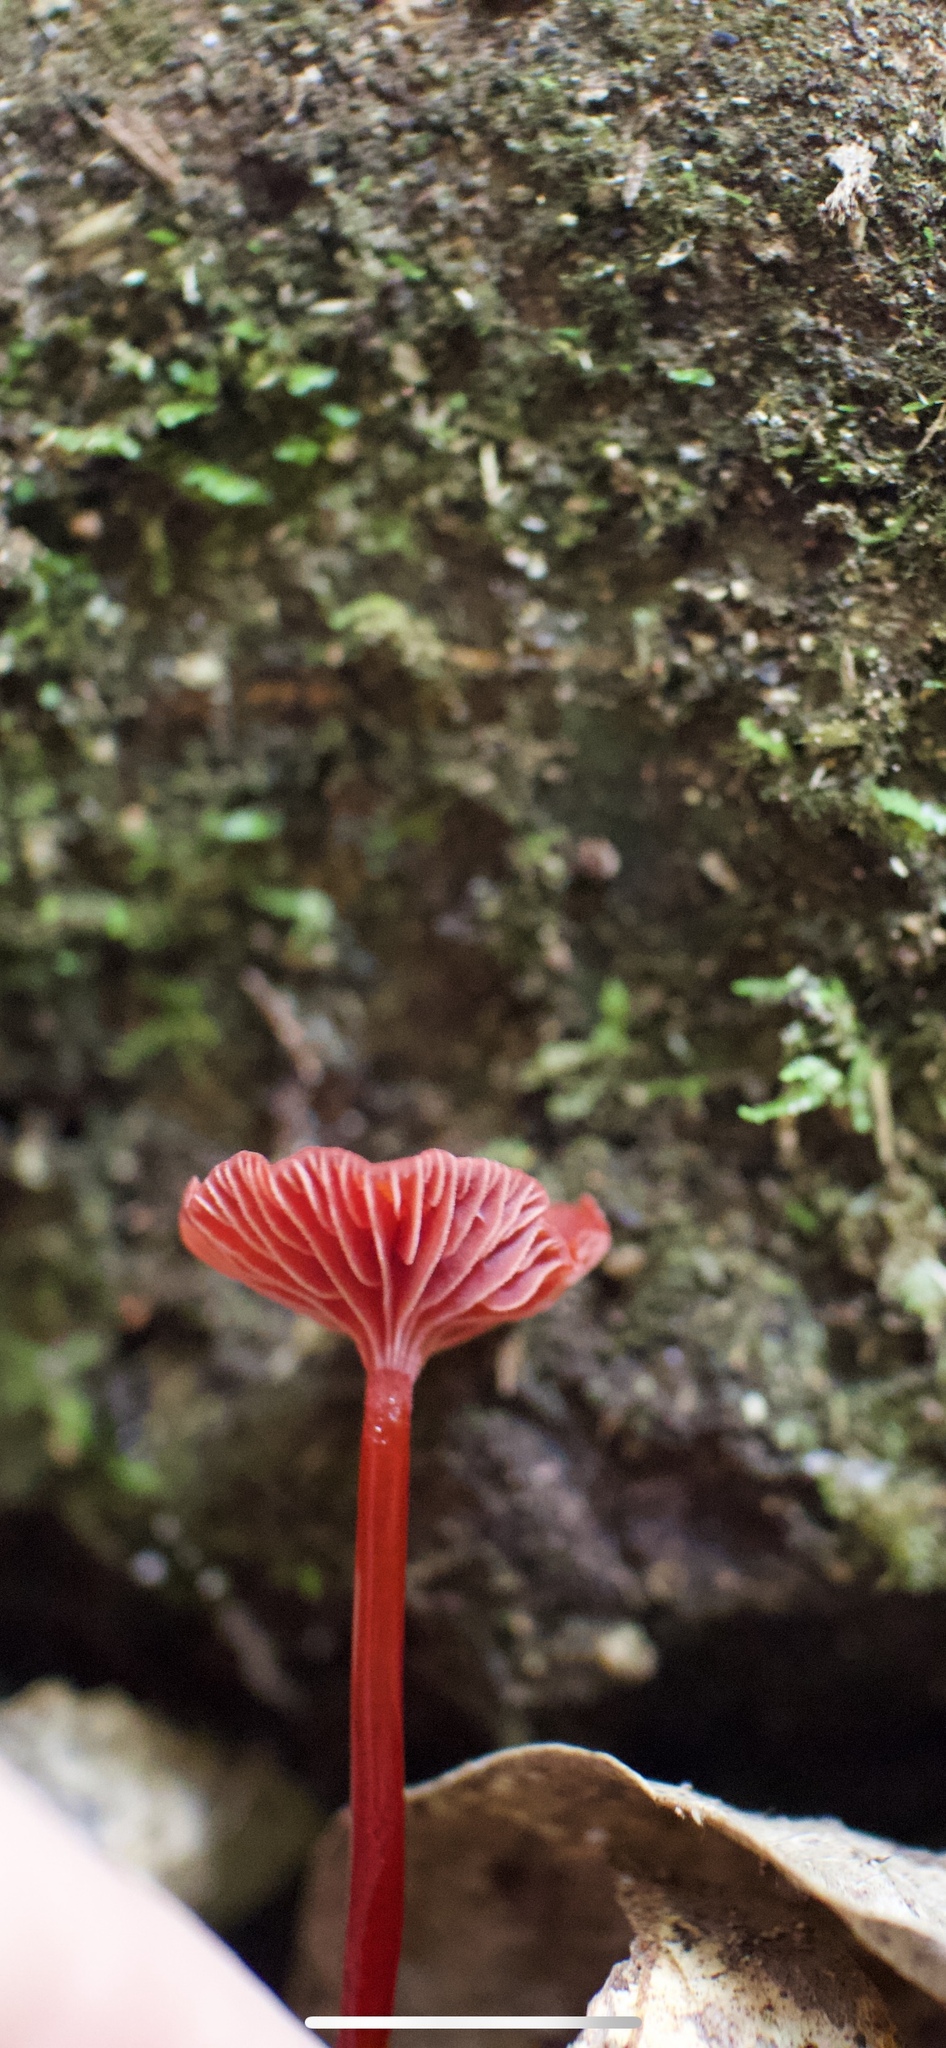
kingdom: Fungi
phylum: Basidiomycota
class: Agaricomycetes
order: Agaricales
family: Mycenaceae
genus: Cruentomycena
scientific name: Cruentomycena viscidocruenta
